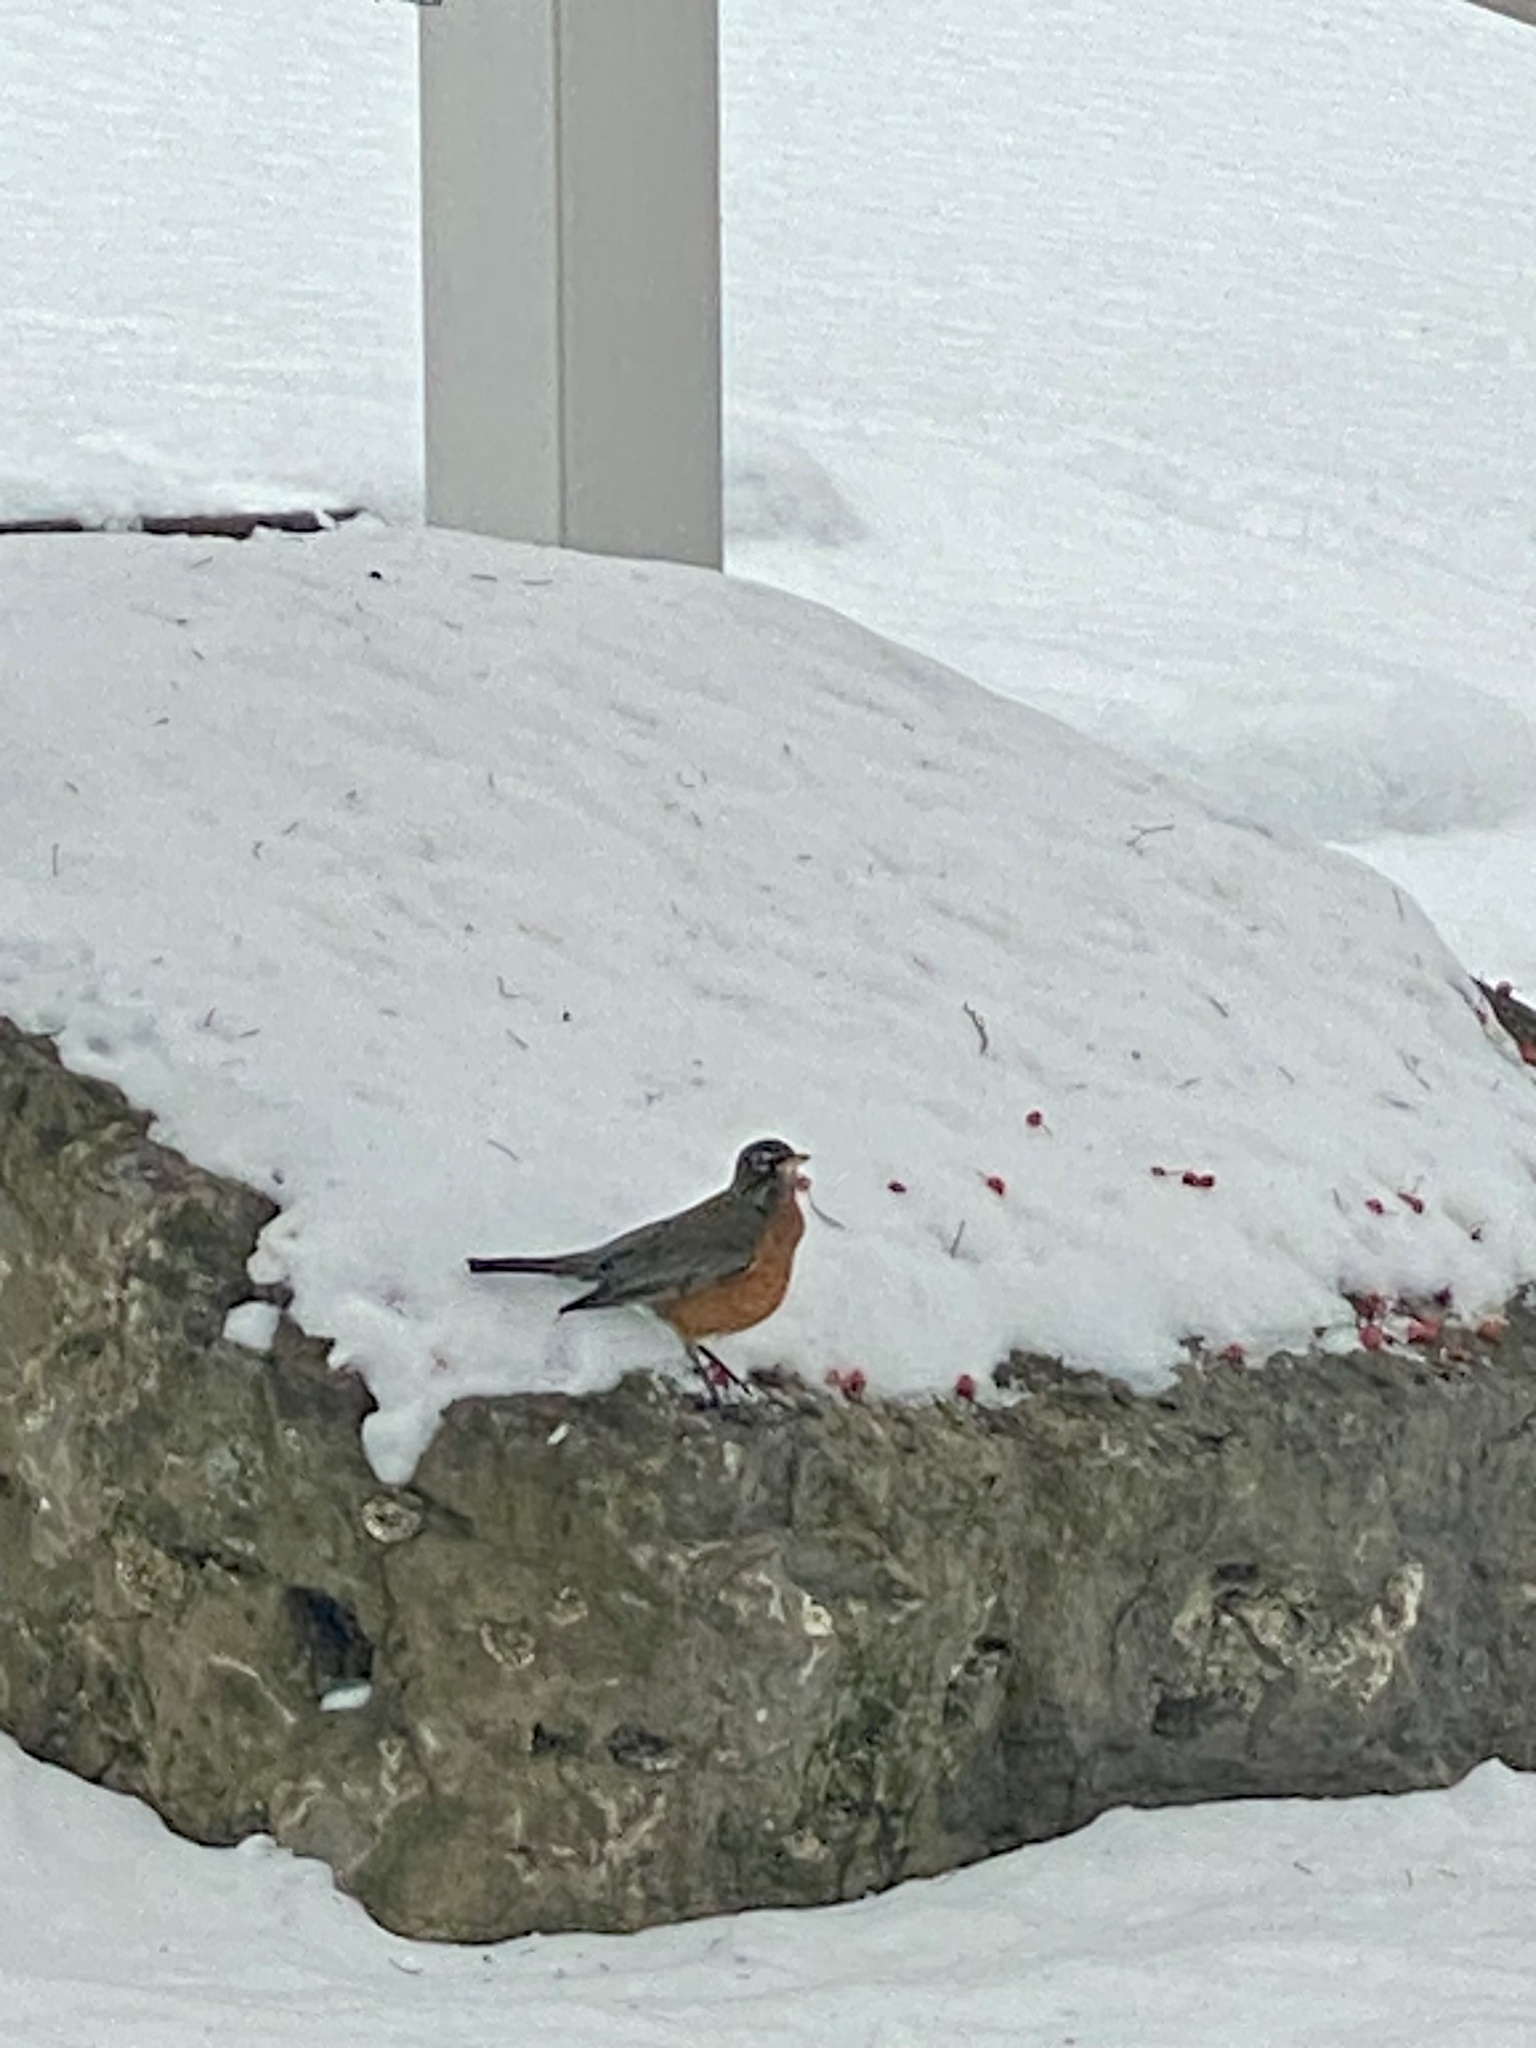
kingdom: Animalia
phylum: Chordata
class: Aves
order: Passeriformes
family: Turdidae
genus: Turdus
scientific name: Turdus migratorius
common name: American robin
